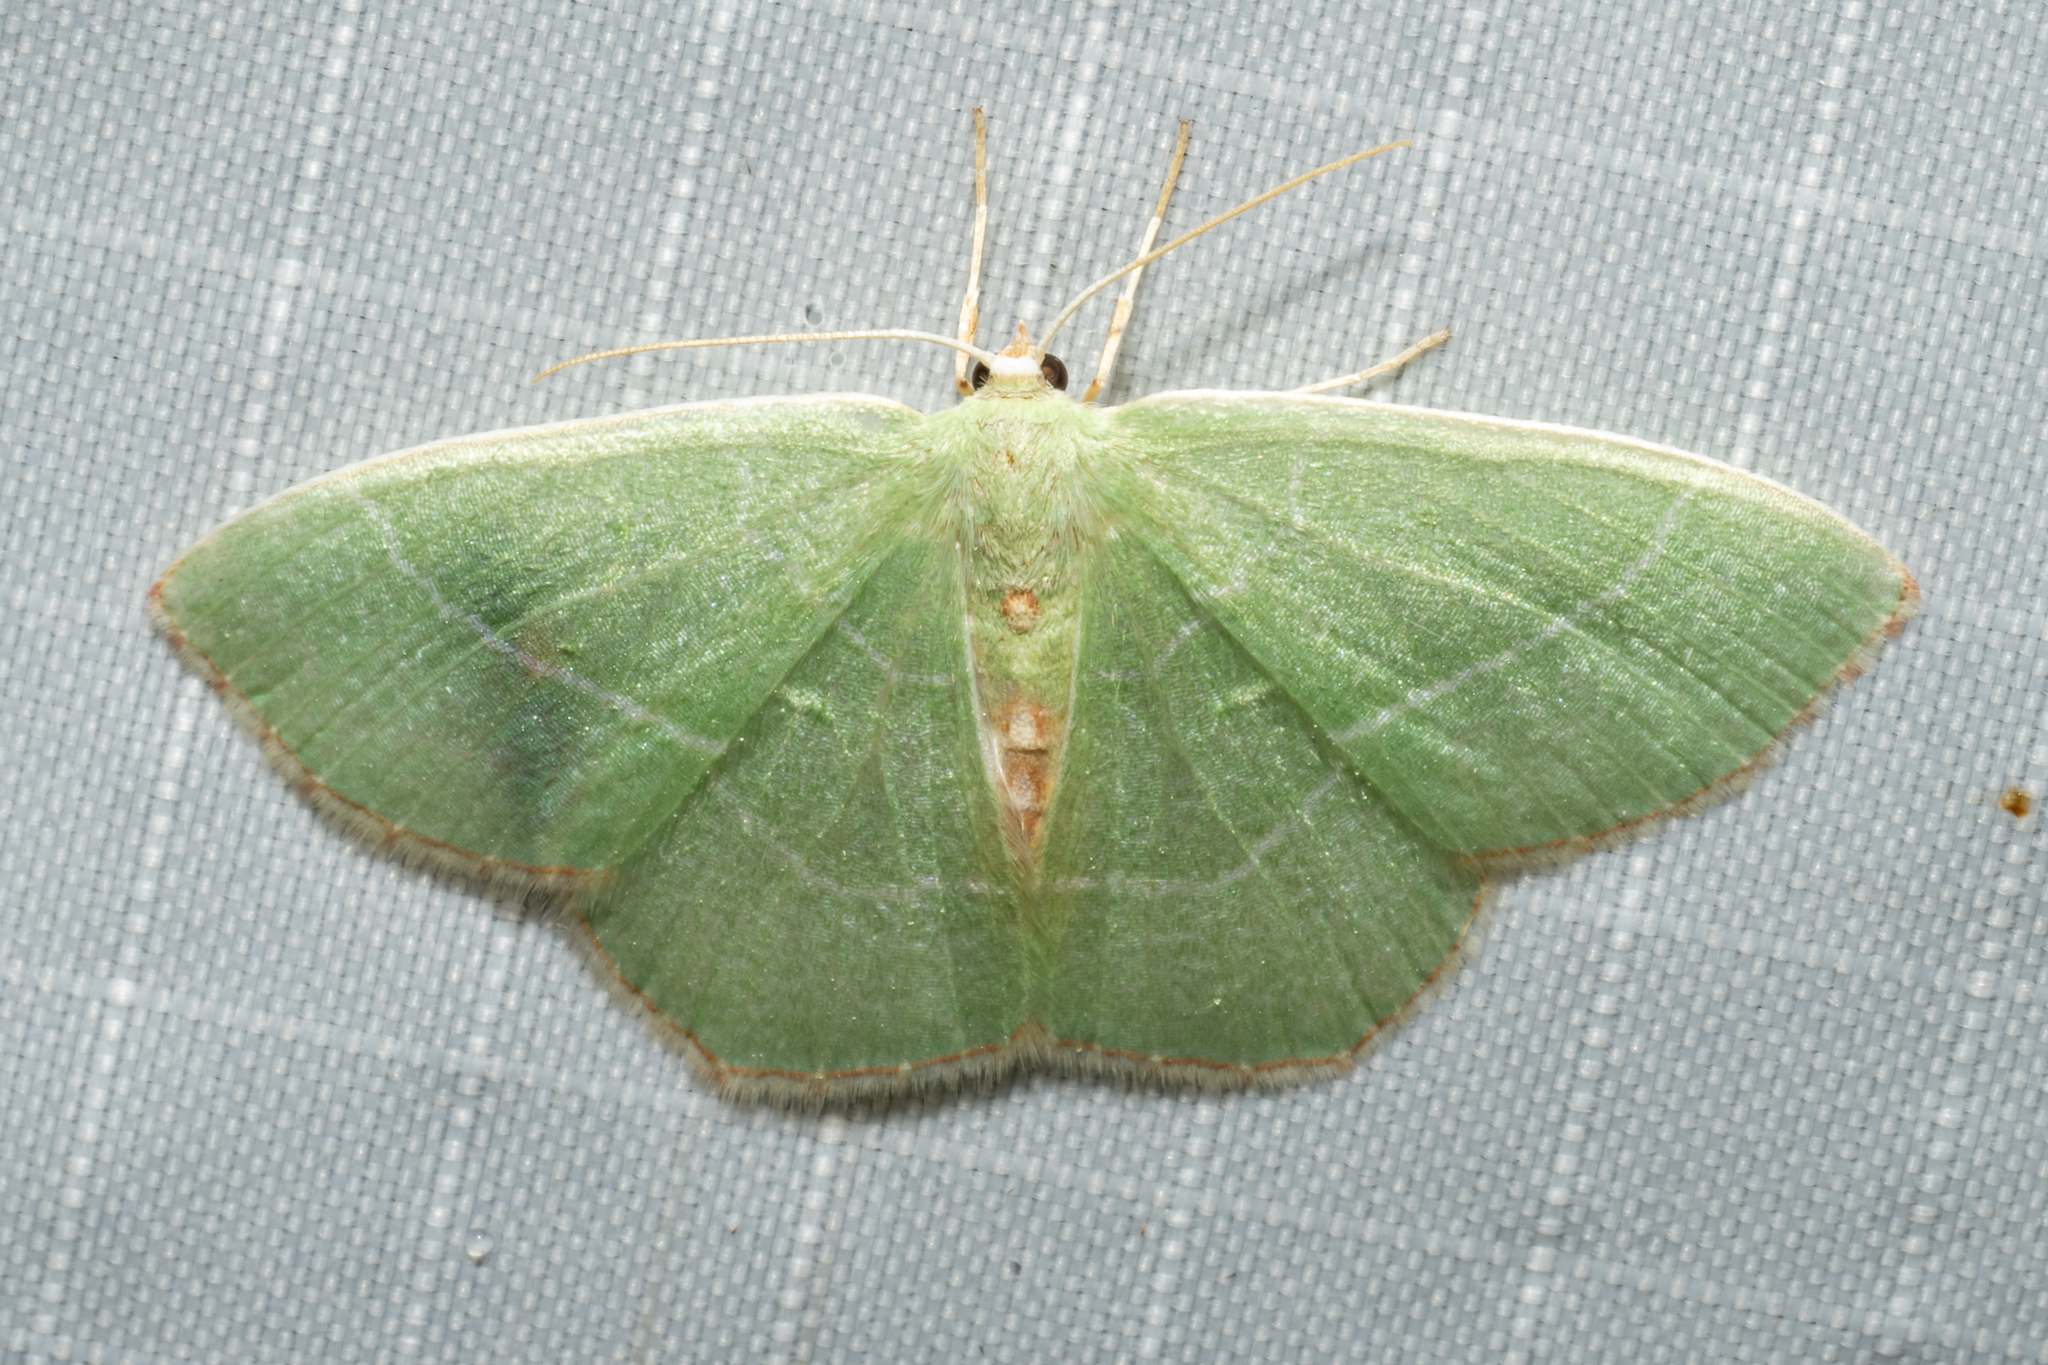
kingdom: Animalia
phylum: Arthropoda
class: Insecta
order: Lepidoptera
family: Geometridae
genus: Nemoria
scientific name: Nemoria bistriaria
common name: Red-fringed emerald
